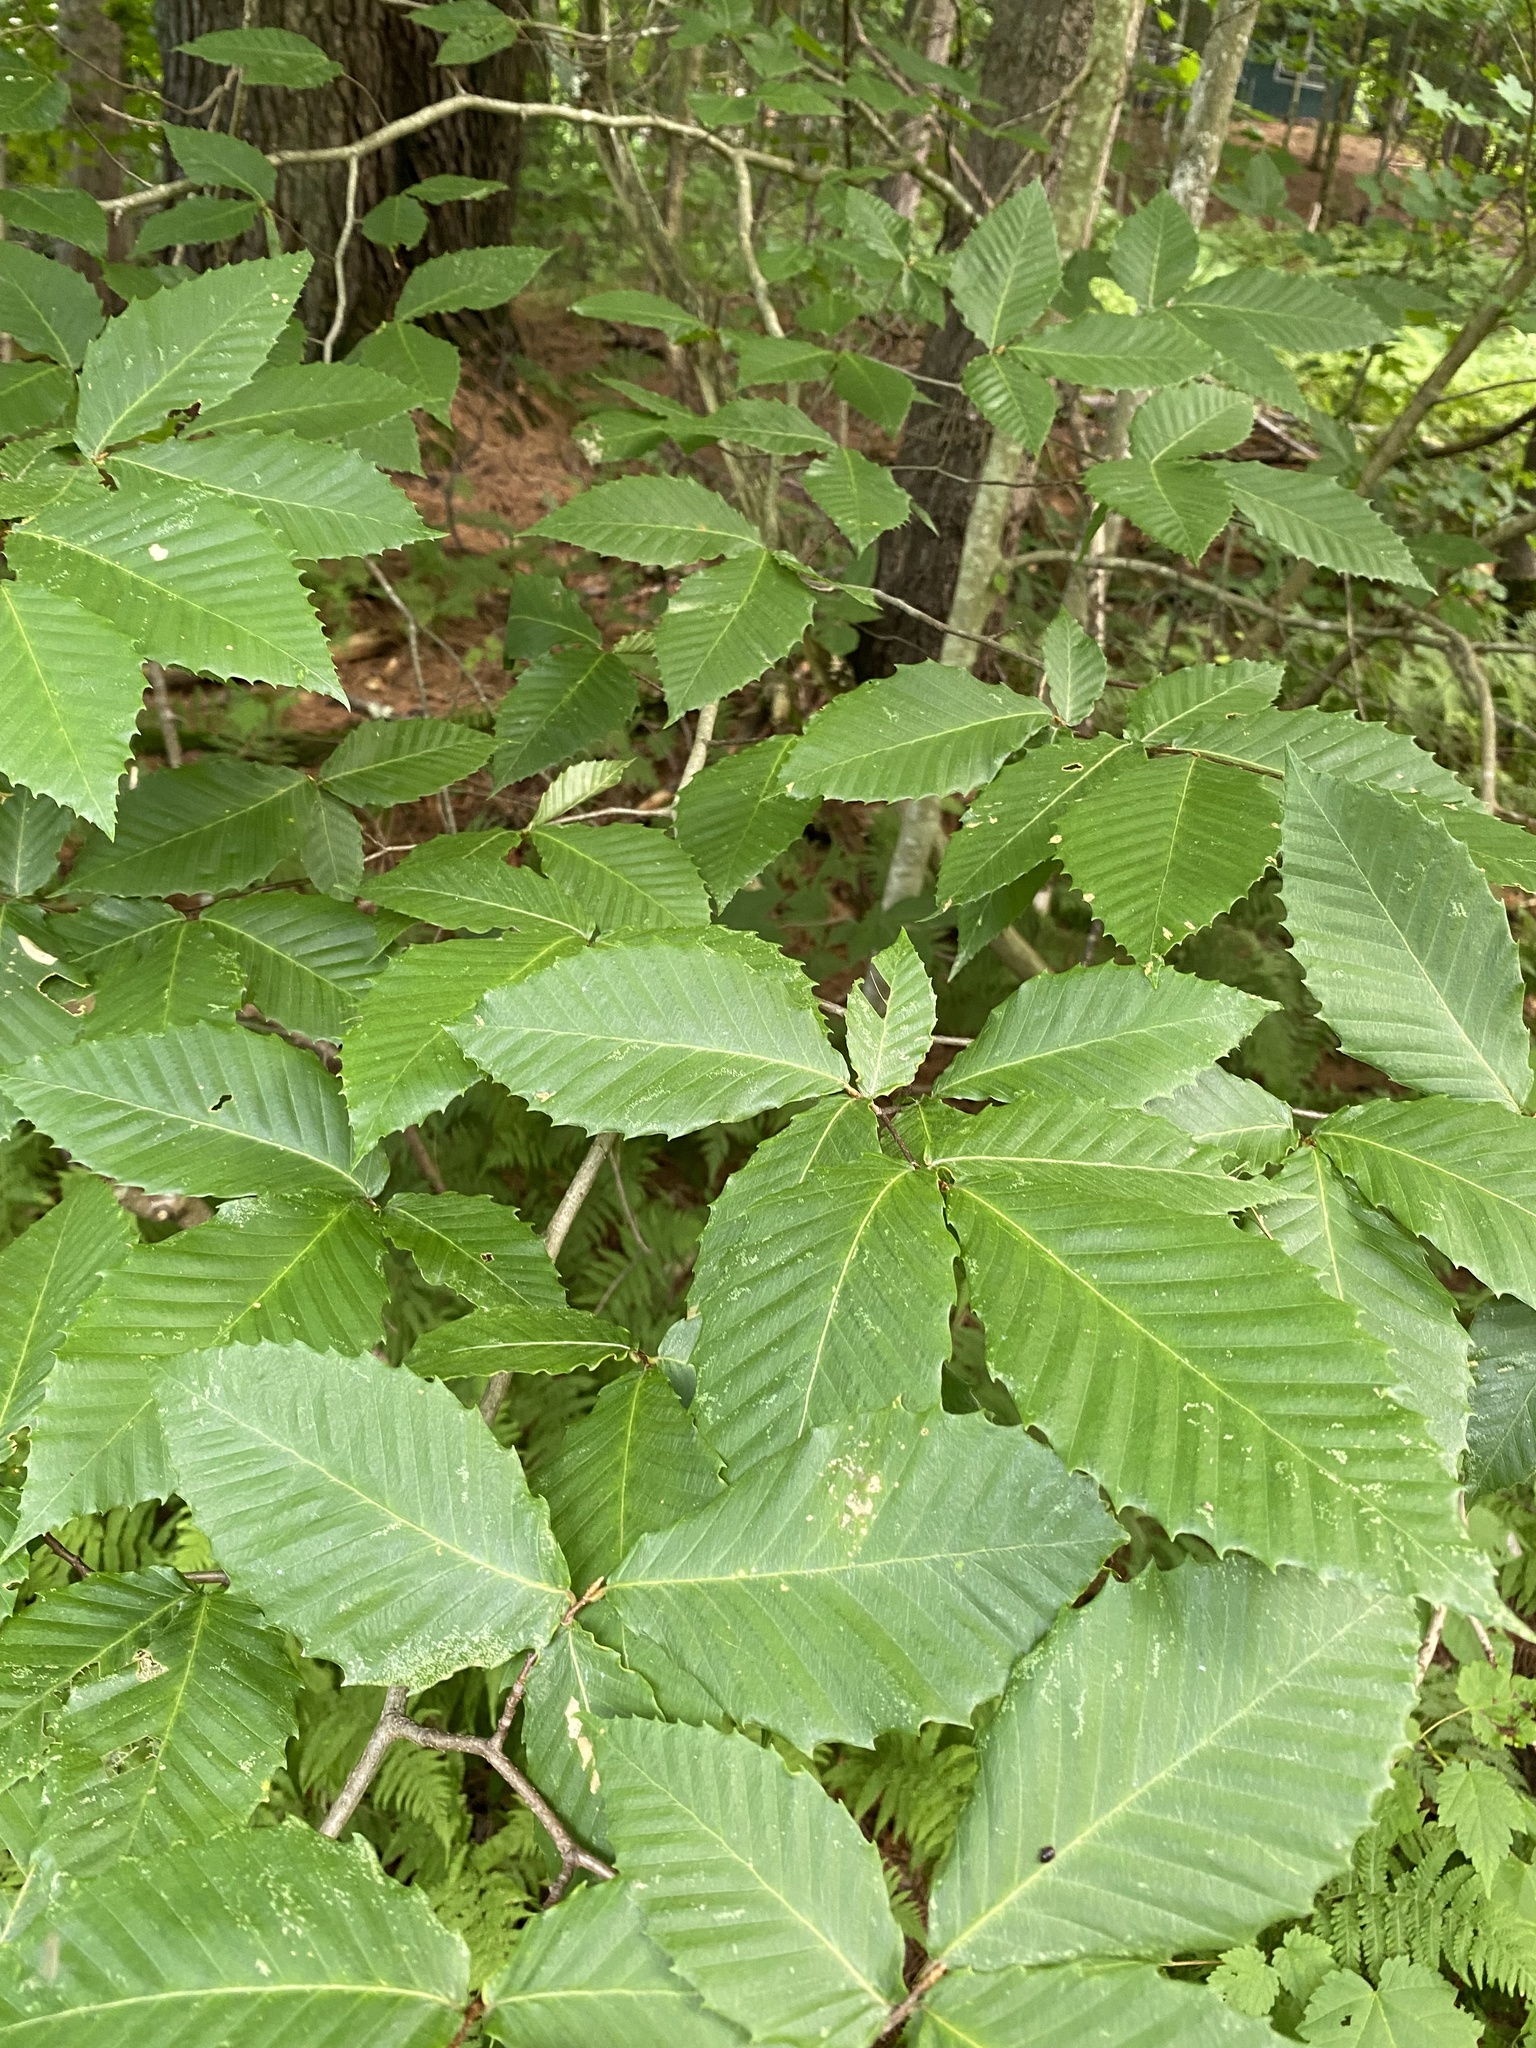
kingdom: Plantae
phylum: Tracheophyta
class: Magnoliopsida
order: Fagales
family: Fagaceae
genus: Fagus
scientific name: Fagus grandifolia
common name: American beech
